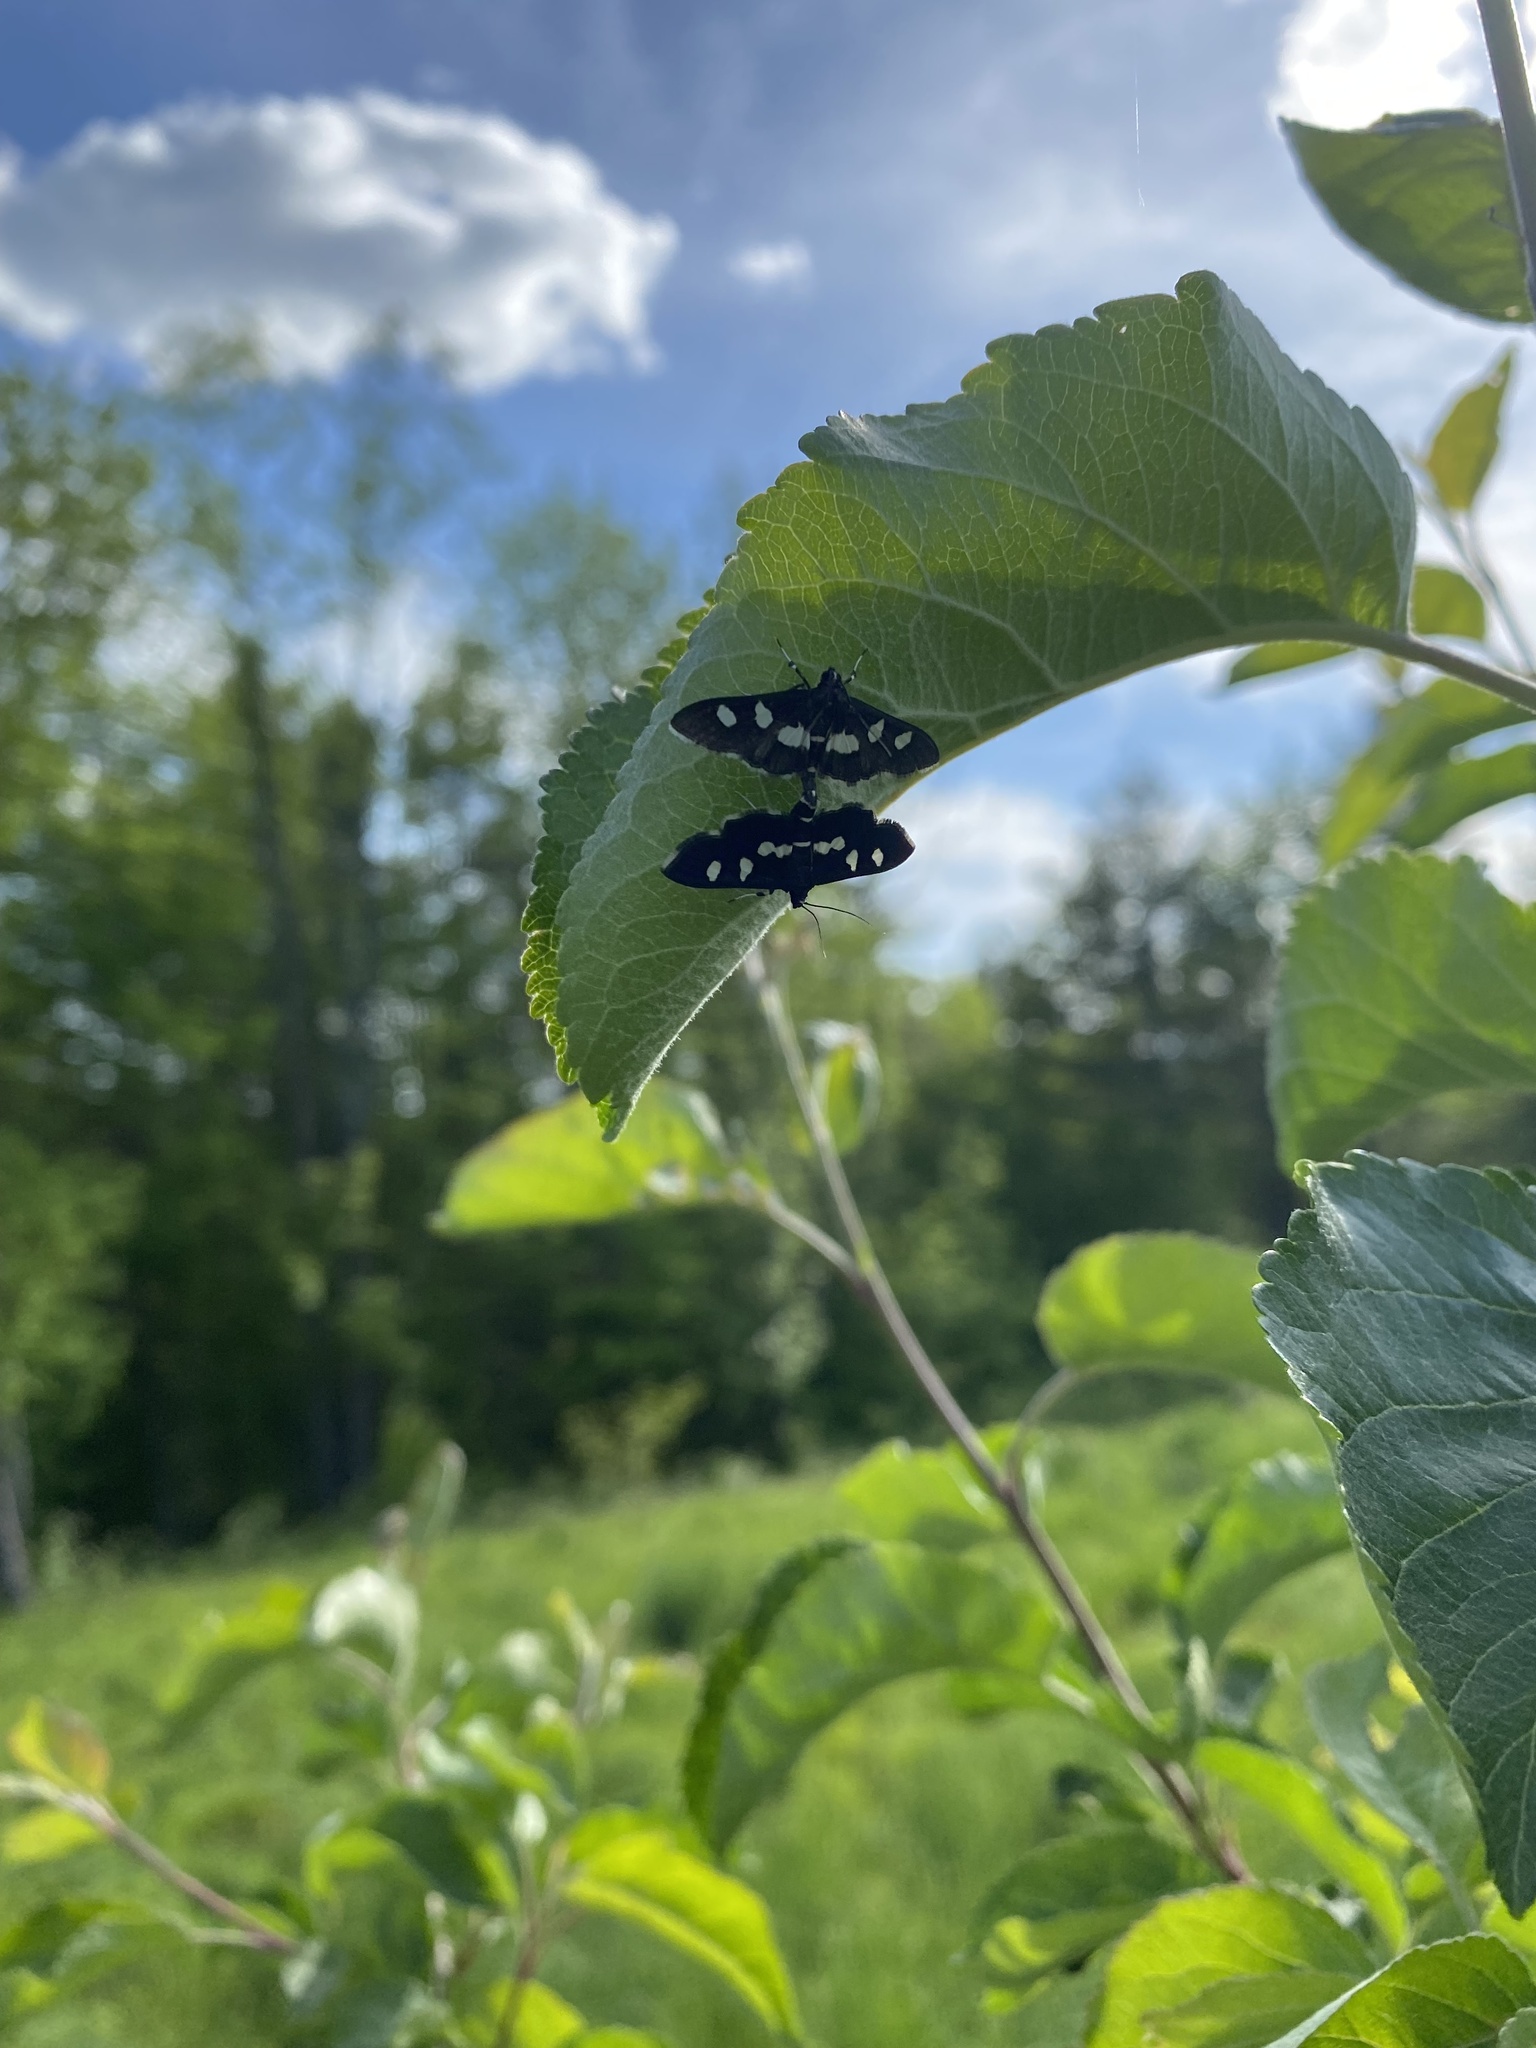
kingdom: Animalia
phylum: Arthropoda
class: Insecta
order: Lepidoptera
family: Crambidae
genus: Desmia
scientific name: Desmia
